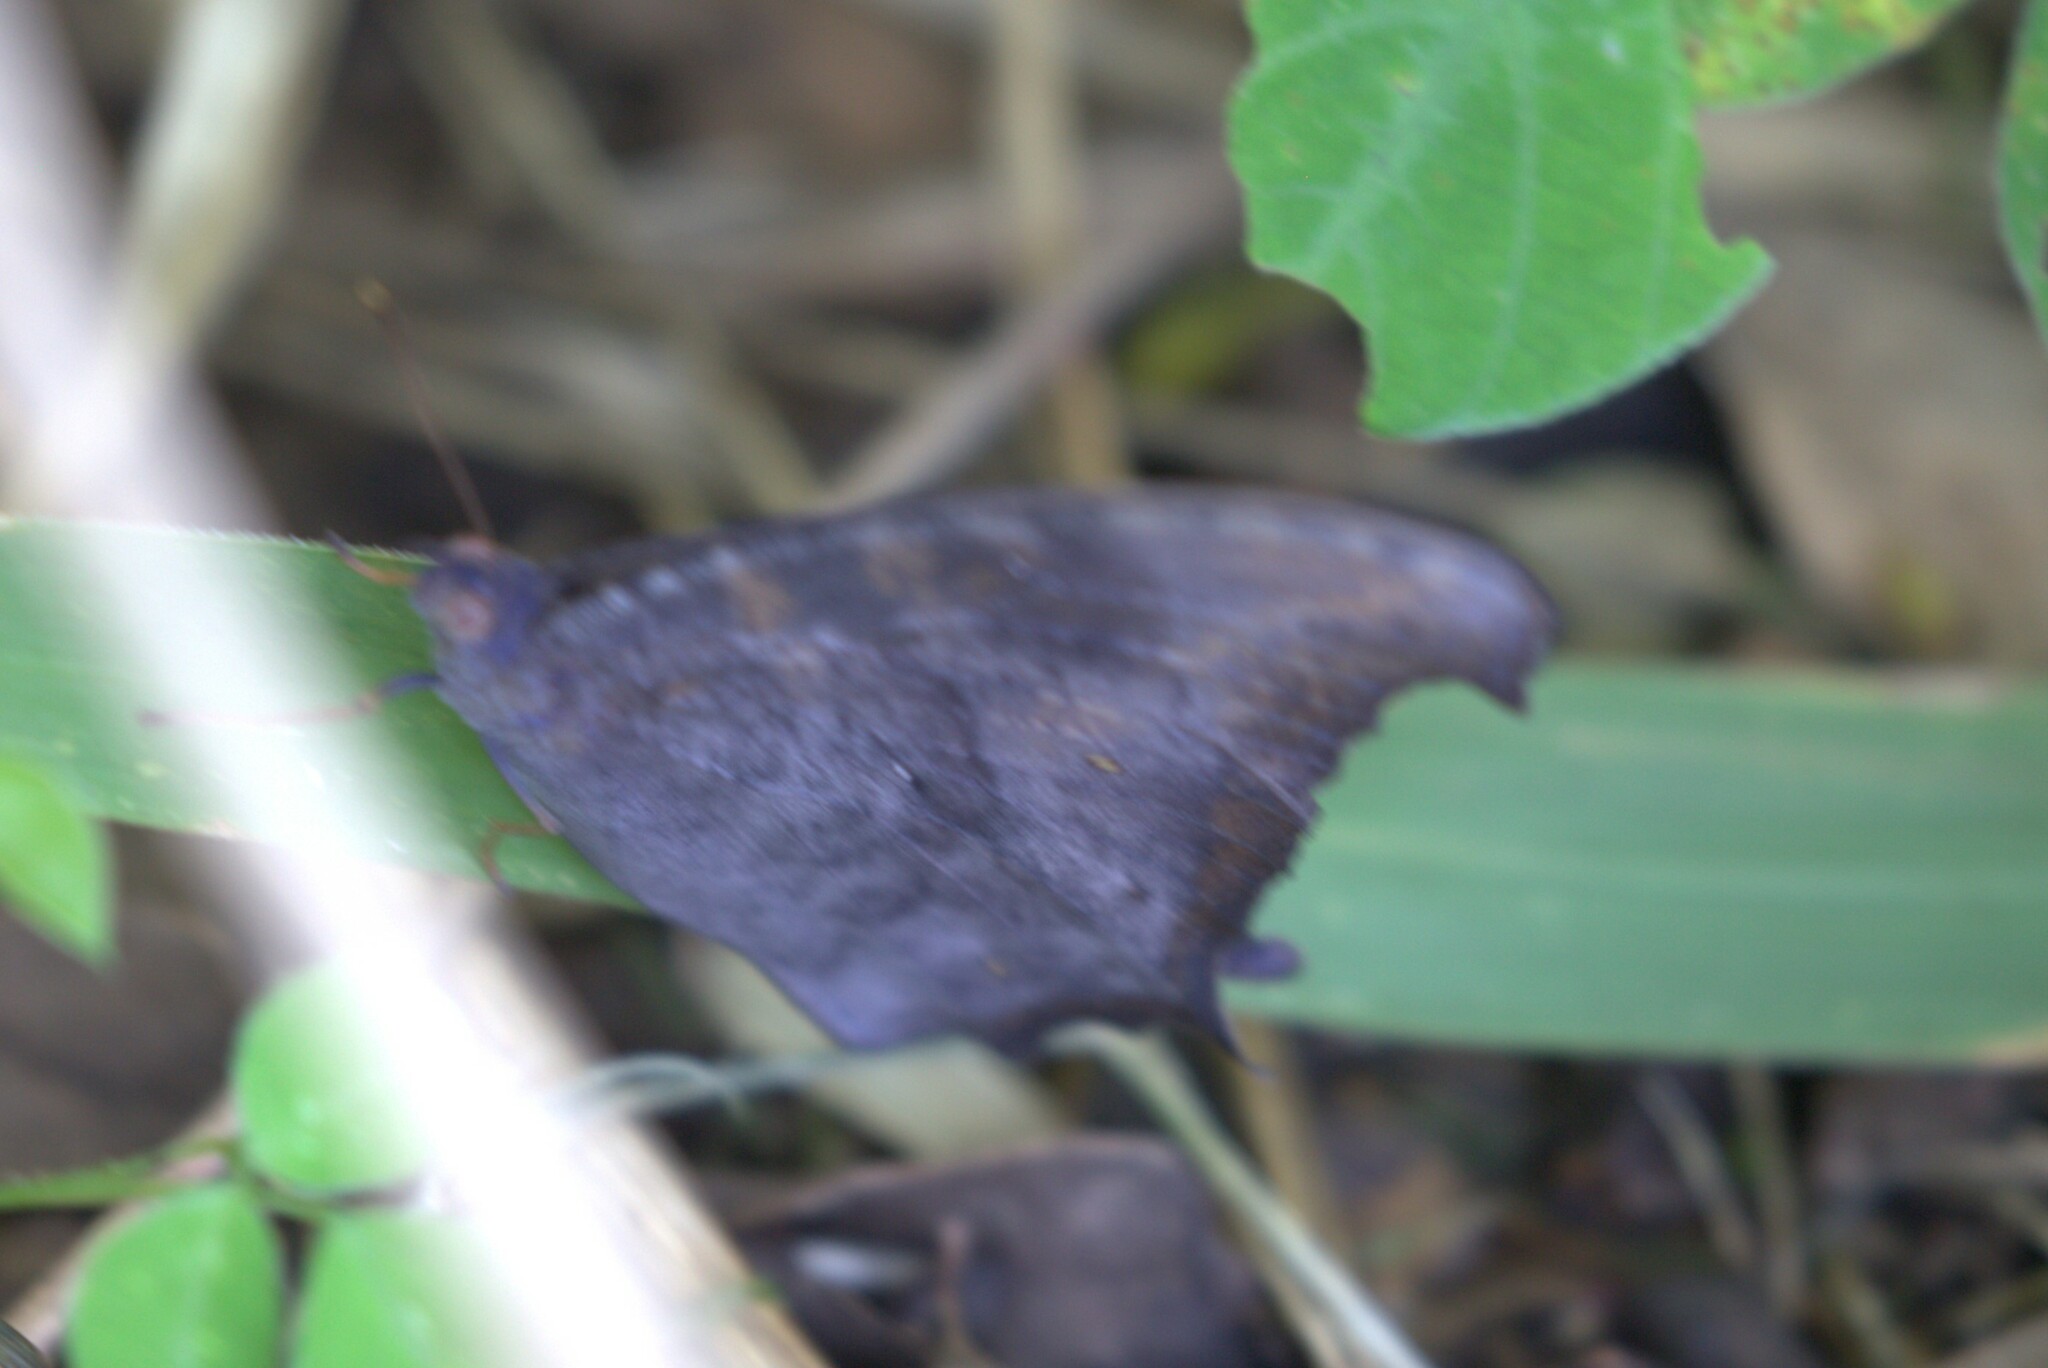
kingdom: Animalia
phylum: Arthropoda
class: Insecta
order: Lepidoptera
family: Nymphalidae
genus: Melanitis
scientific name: Melanitis leda
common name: Twilight brown
